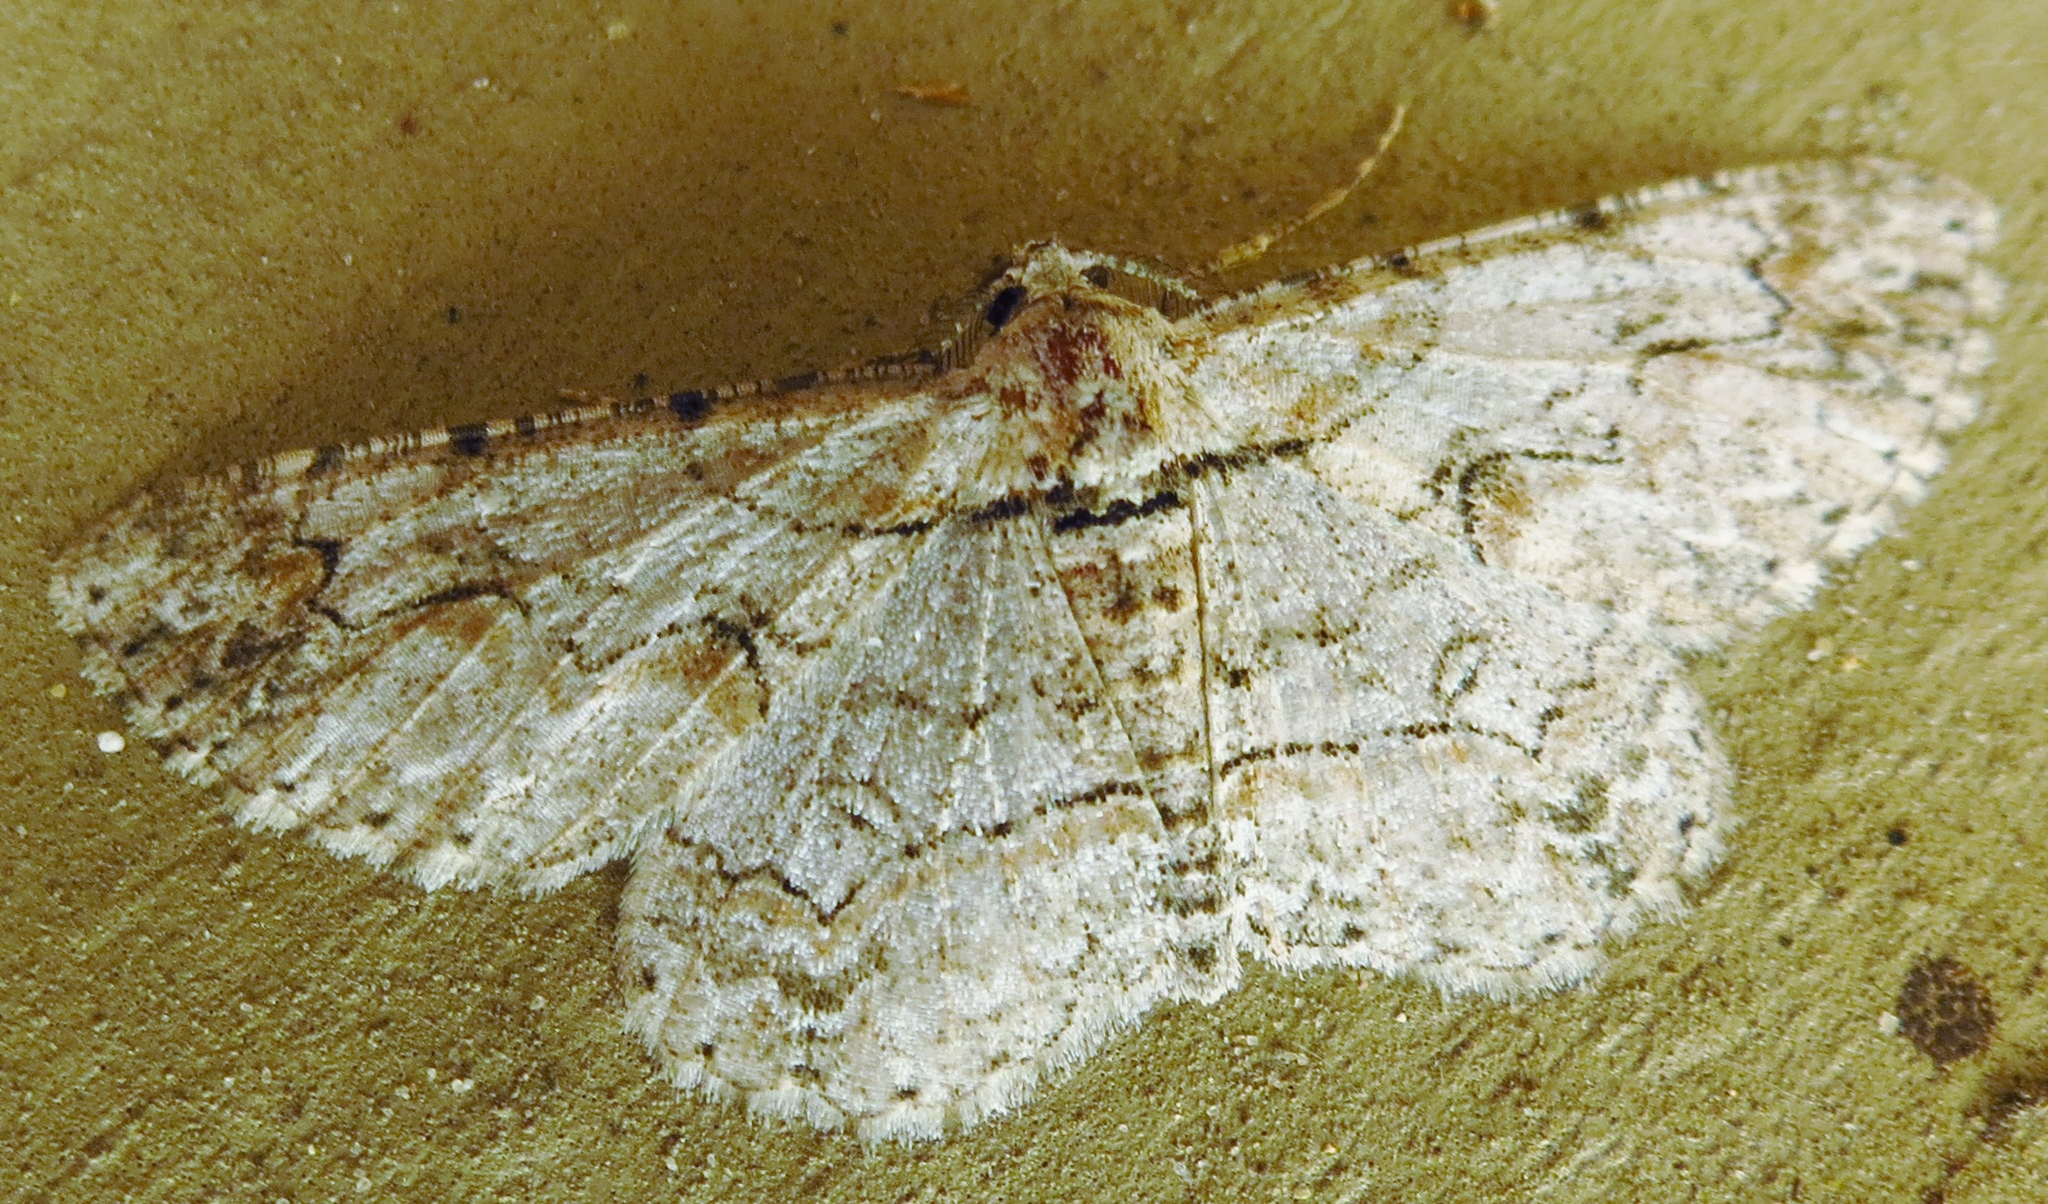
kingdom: Animalia
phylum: Arthropoda
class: Insecta
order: Lepidoptera
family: Geometridae
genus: Iridopsis
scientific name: Iridopsis defectaria
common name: Brown-shaded gray
